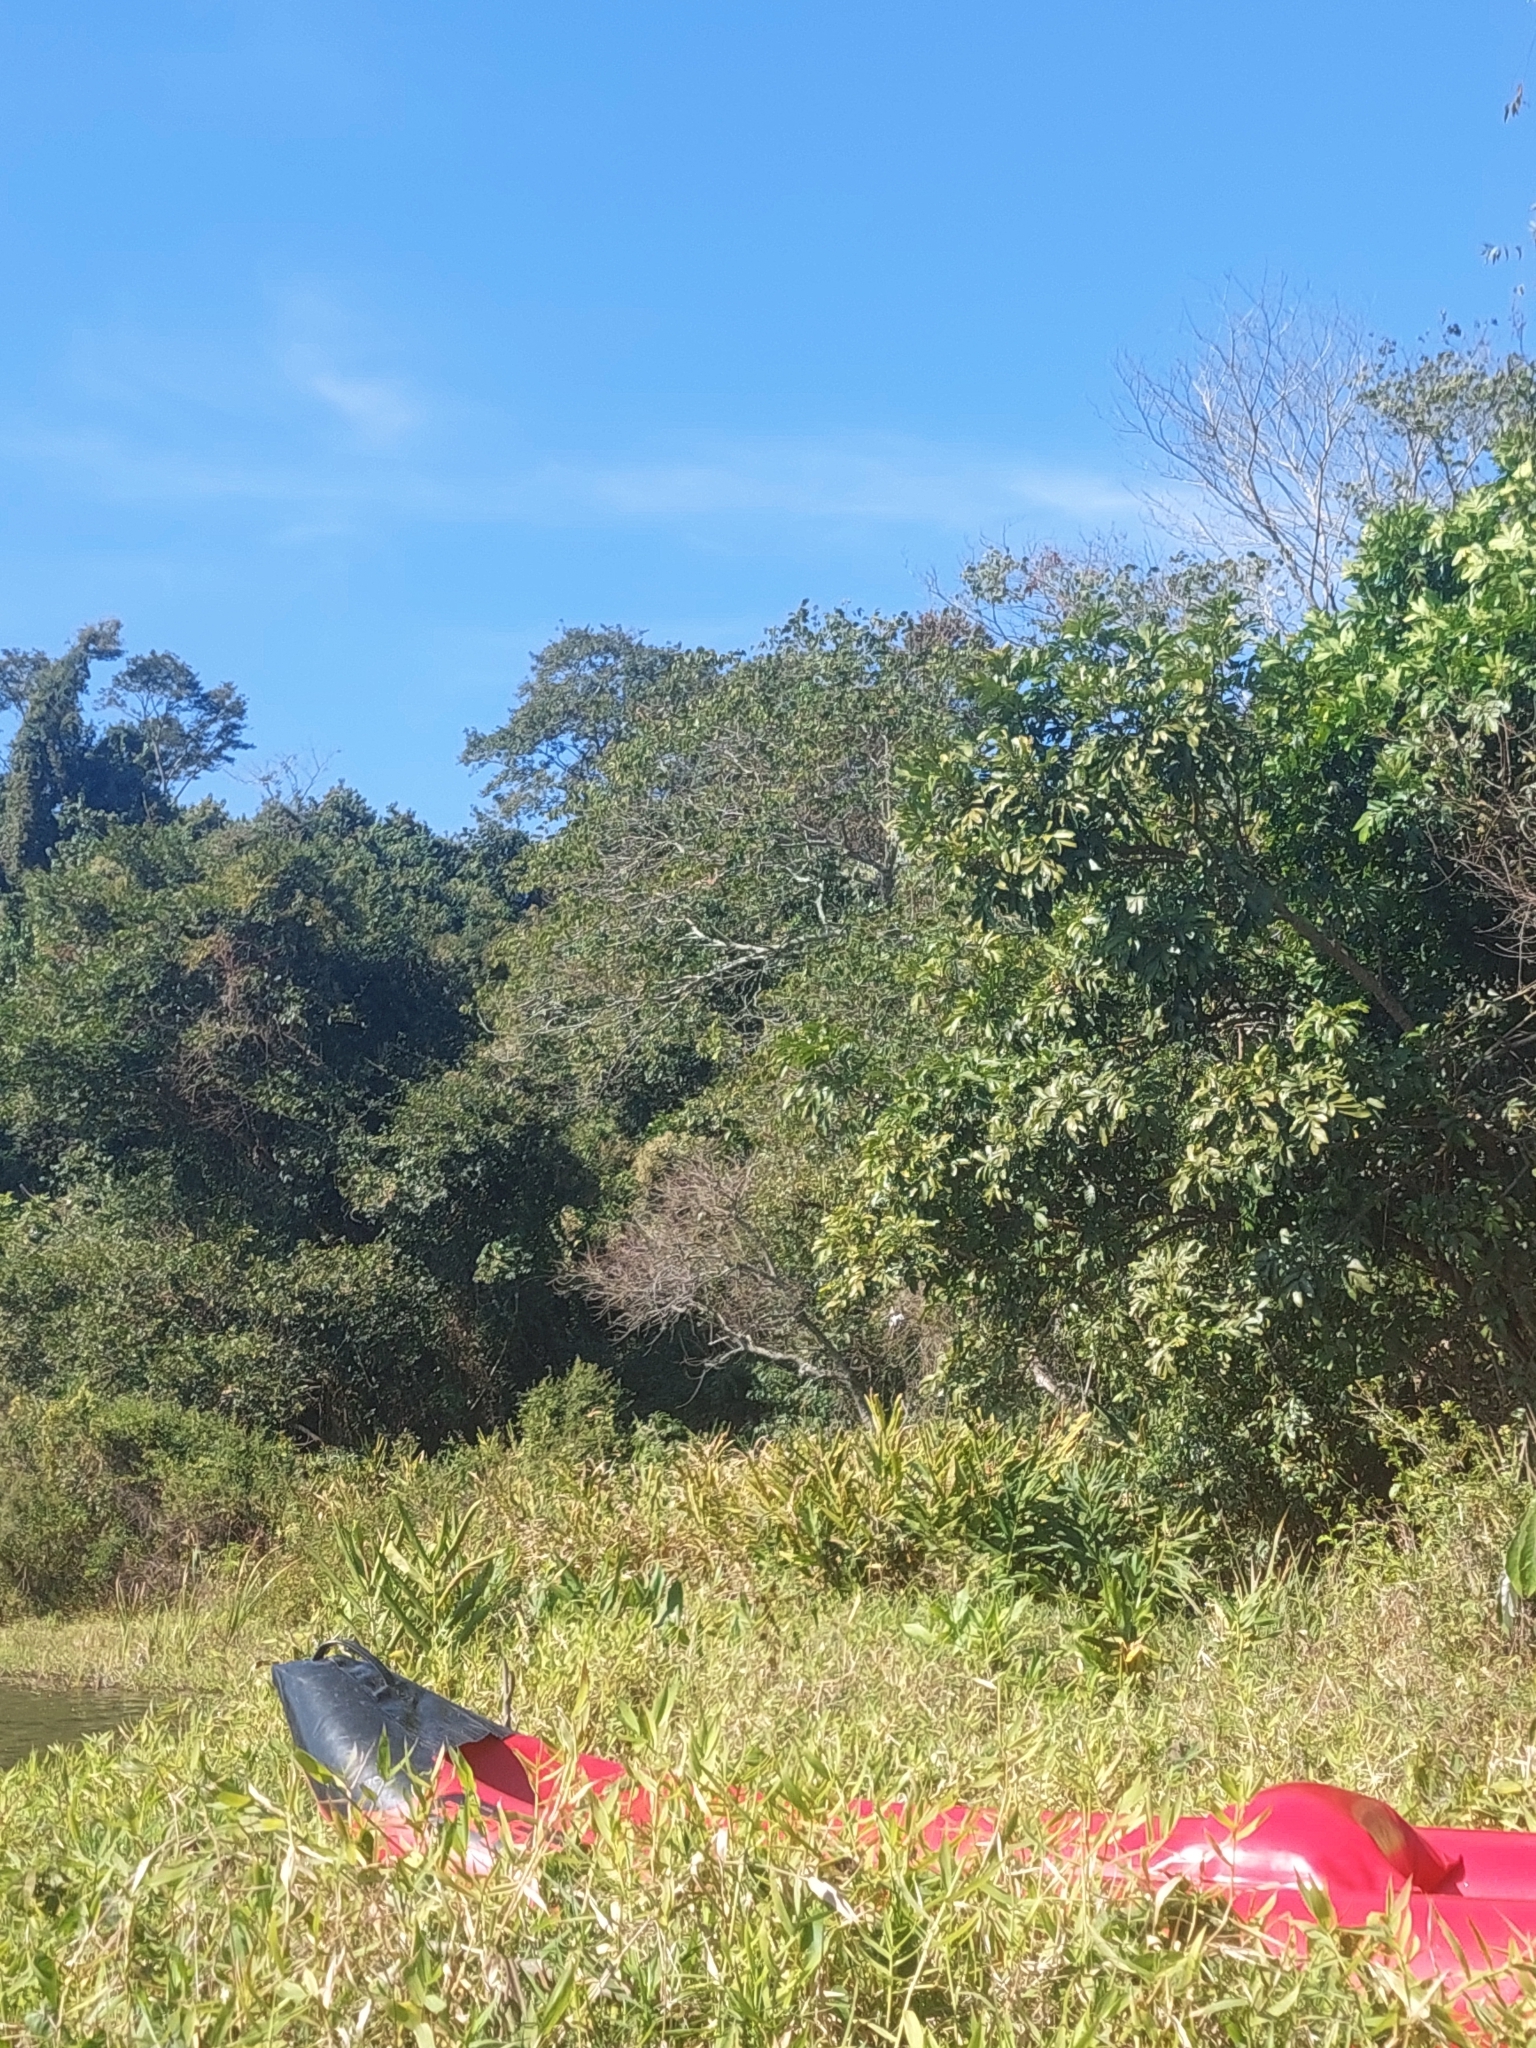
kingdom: Plantae
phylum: Tracheophyta
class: Liliopsida
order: Zingiberales
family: Zingiberaceae
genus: Hedychium
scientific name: Hedychium coronarium
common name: White garland-lily
